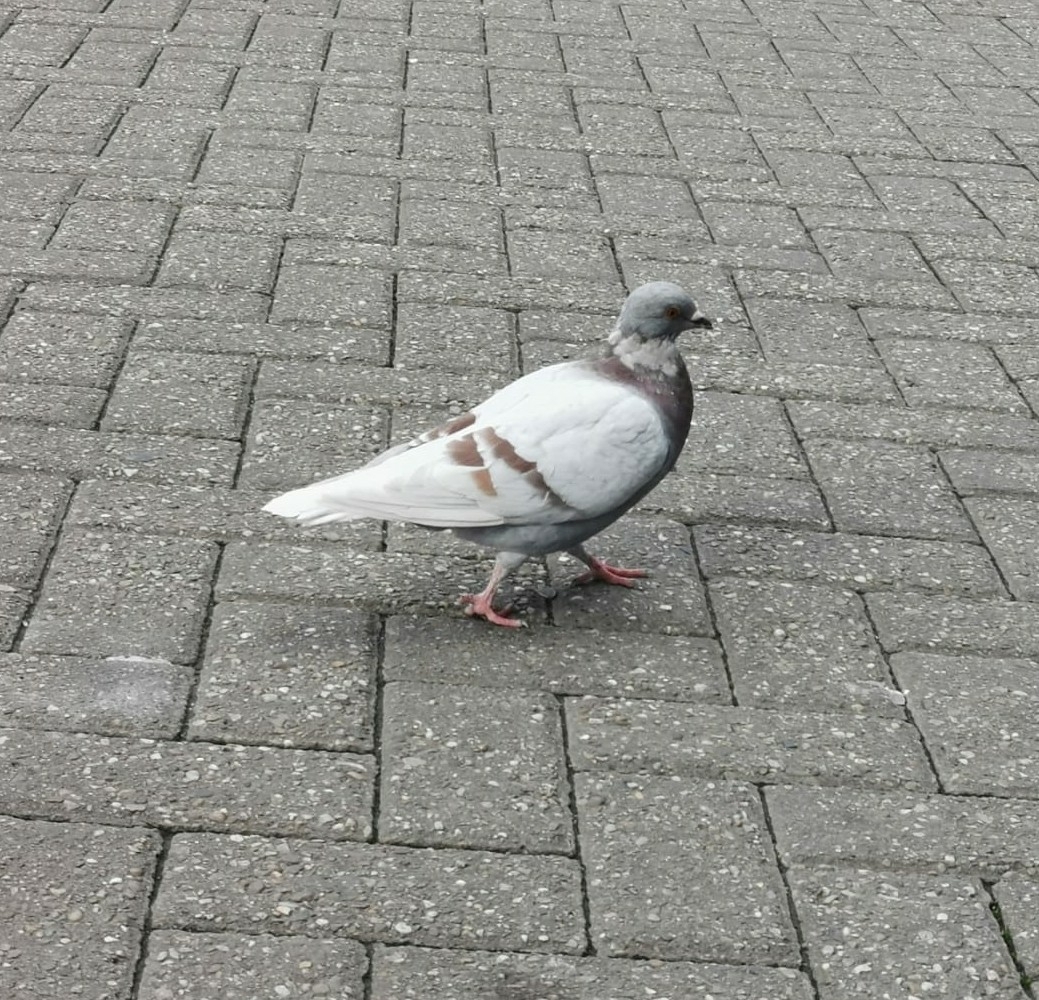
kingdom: Animalia
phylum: Chordata
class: Aves
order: Columbiformes
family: Columbidae
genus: Columba
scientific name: Columba livia
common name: Rock pigeon
